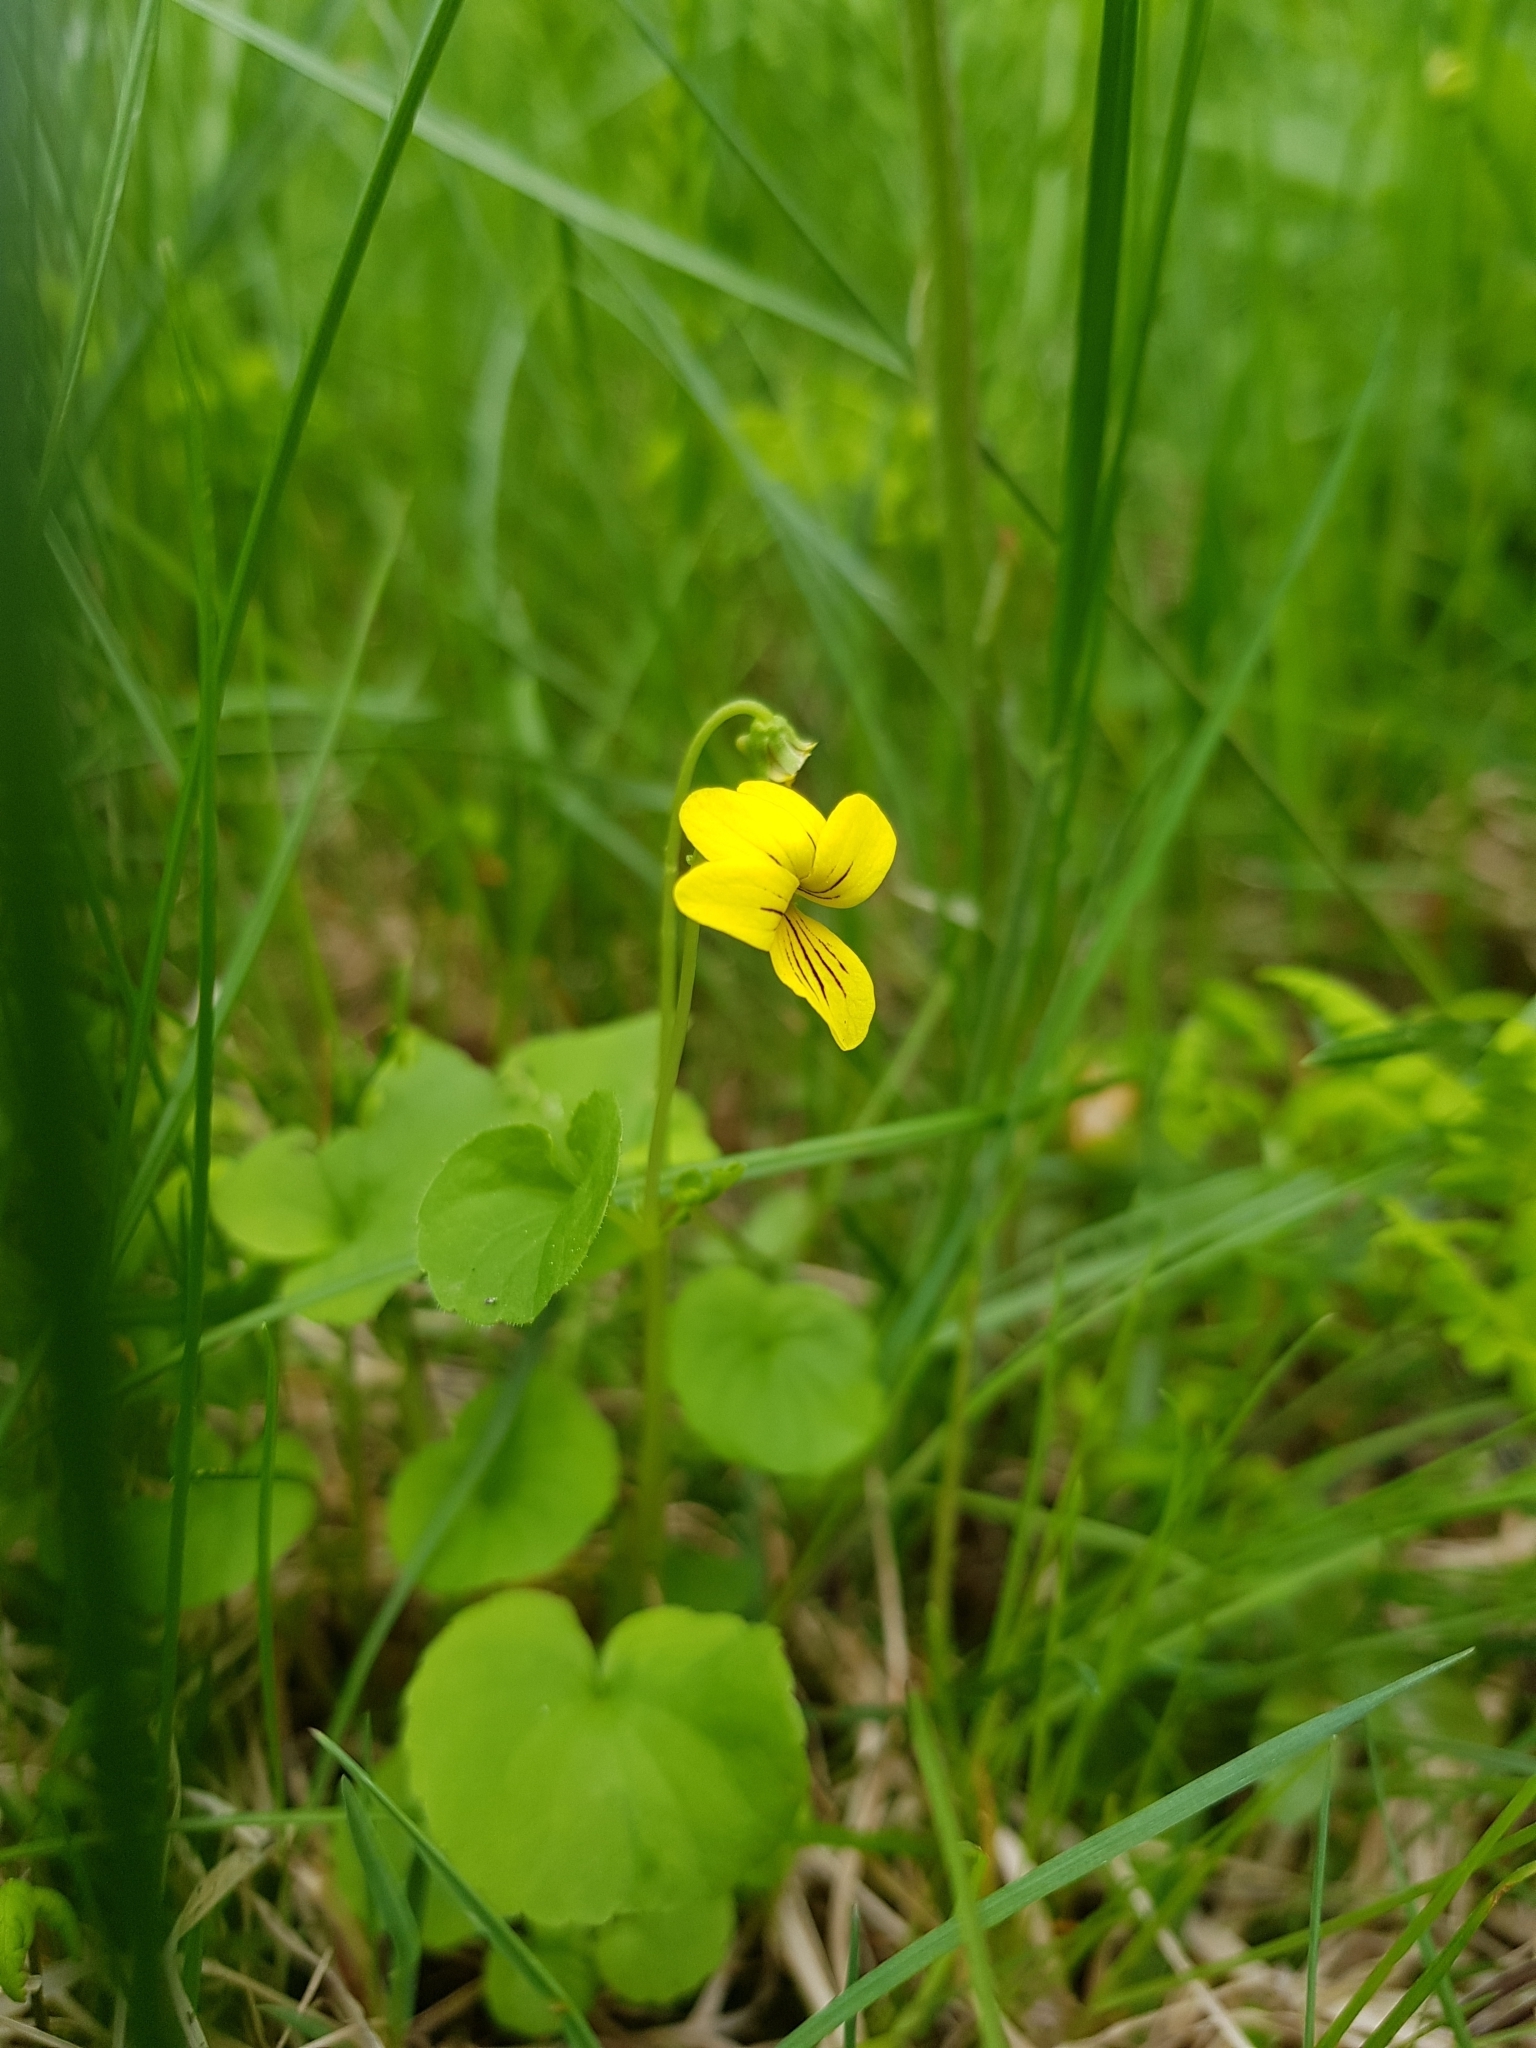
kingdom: Plantae
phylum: Tracheophyta
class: Magnoliopsida
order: Malpighiales
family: Violaceae
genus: Viola
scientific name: Viola biflora
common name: Alpine yellow violet
